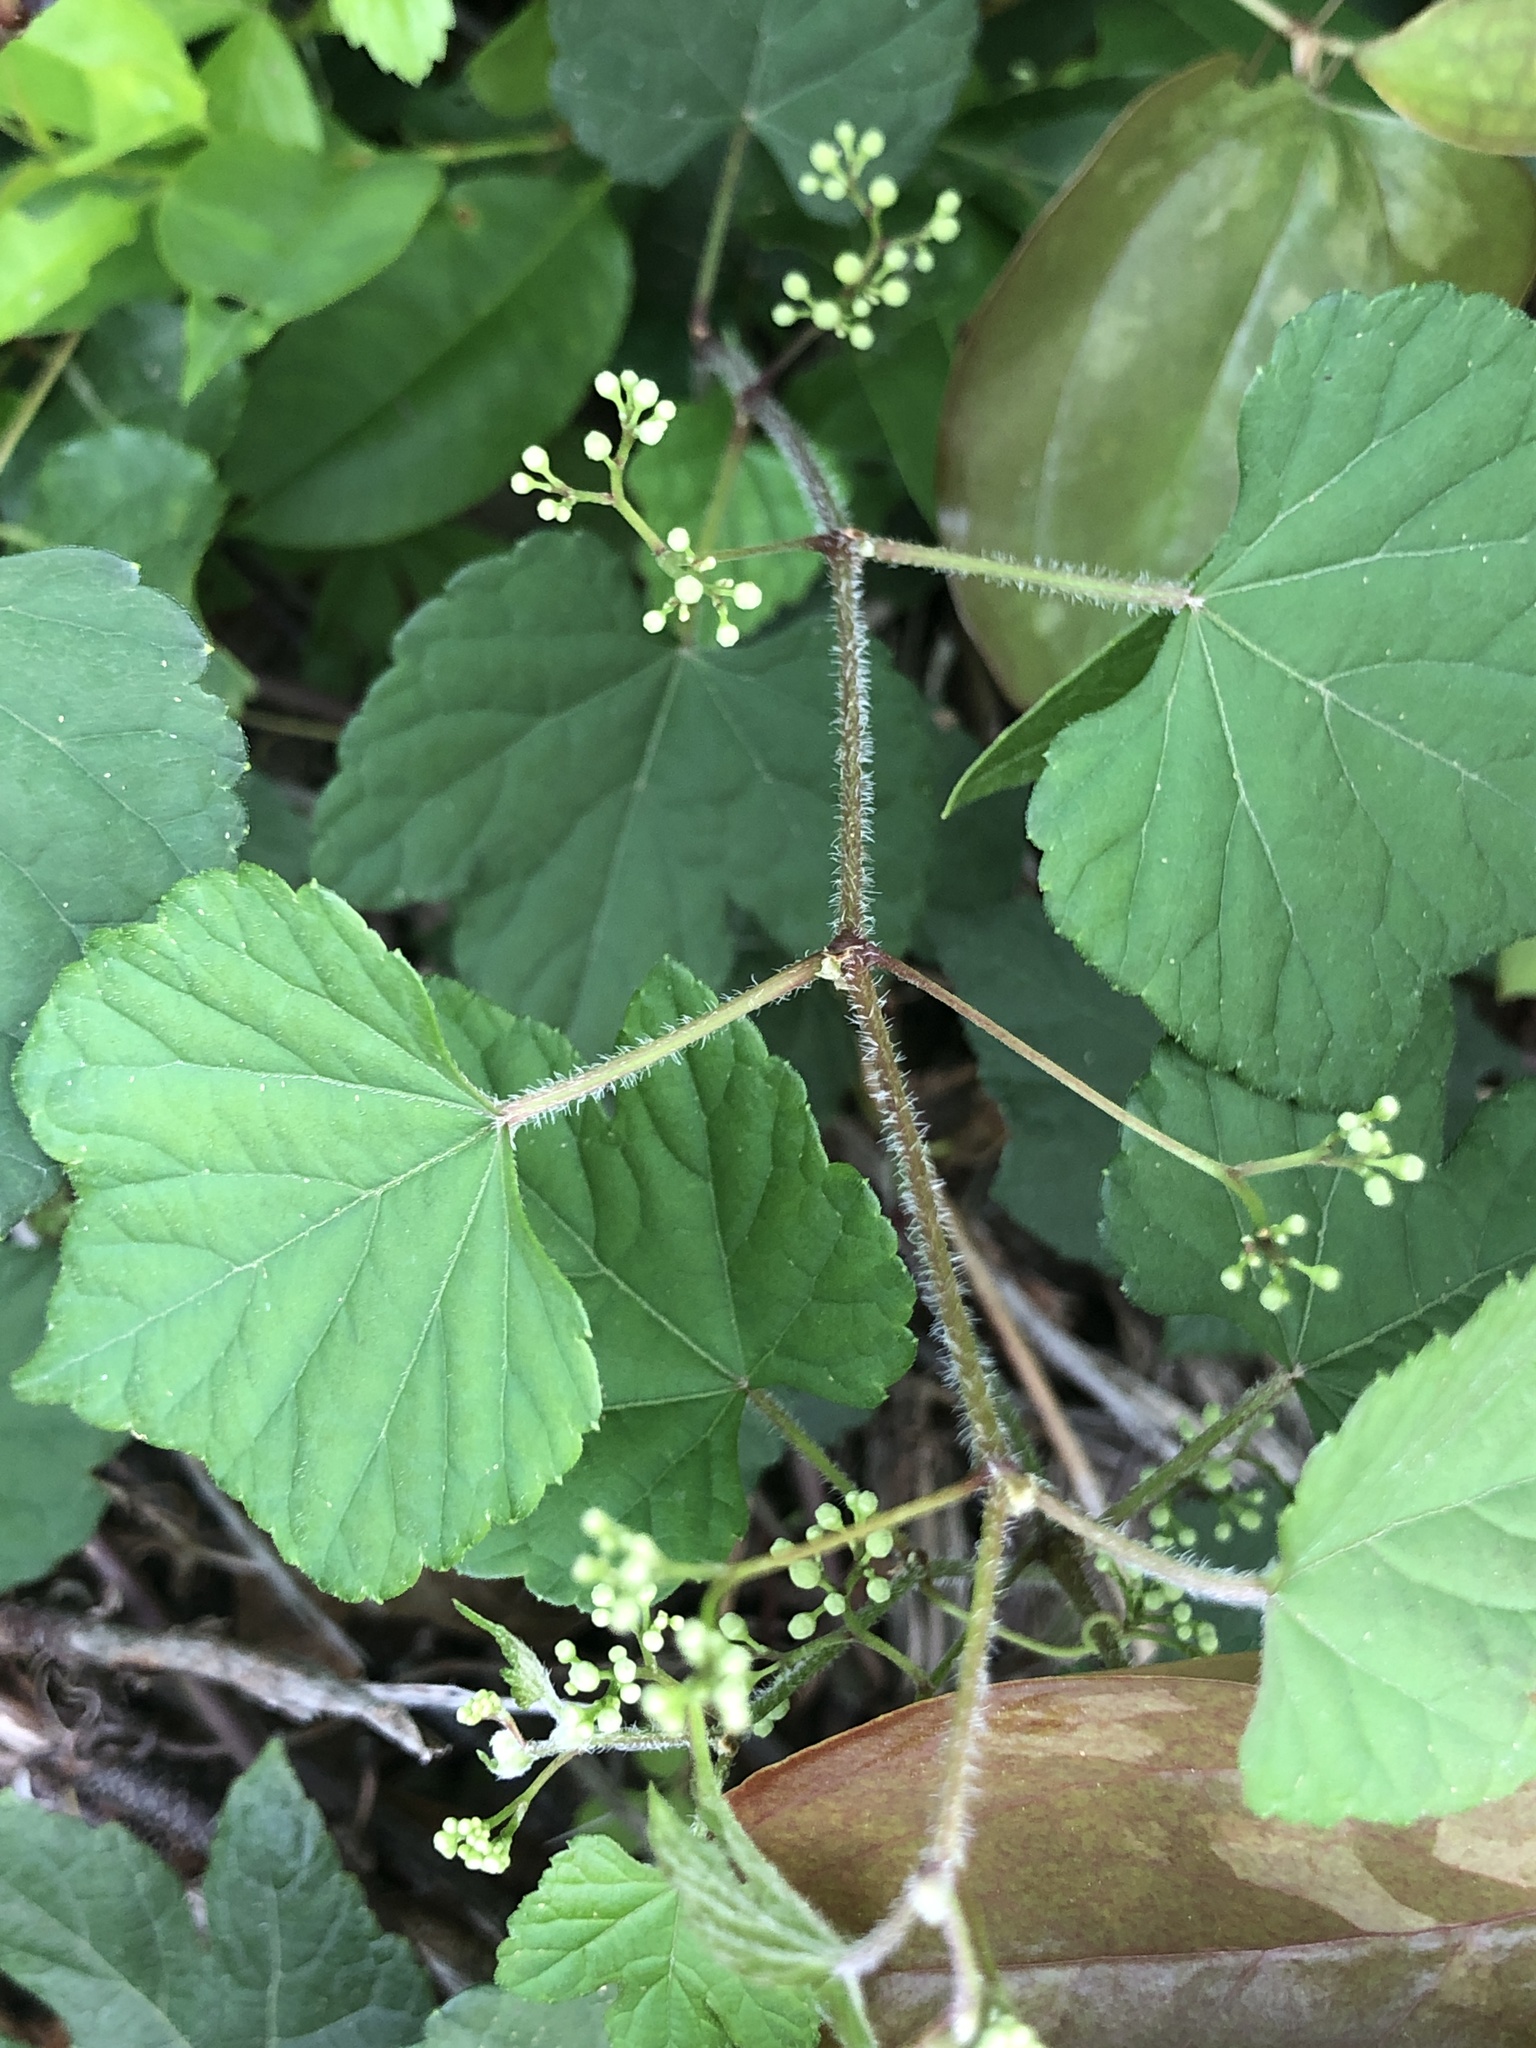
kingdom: Plantae
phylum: Tracheophyta
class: Magnoliopsida
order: Vitales
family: Vitaceae
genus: Ampelopsis
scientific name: Ampelopsis glandulosa
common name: Amur peppervine
